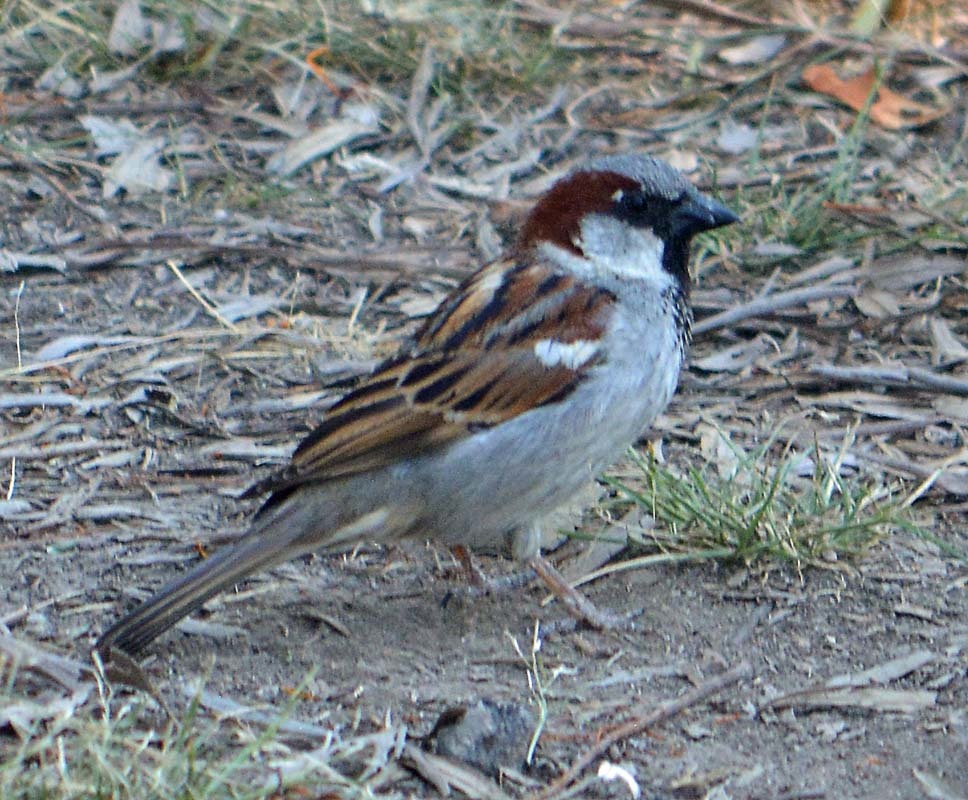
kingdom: Animalia
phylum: Chordata
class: Aves
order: Passeriformes
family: Passeridae
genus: Passer
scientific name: Passer domesticus
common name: House sparrow
